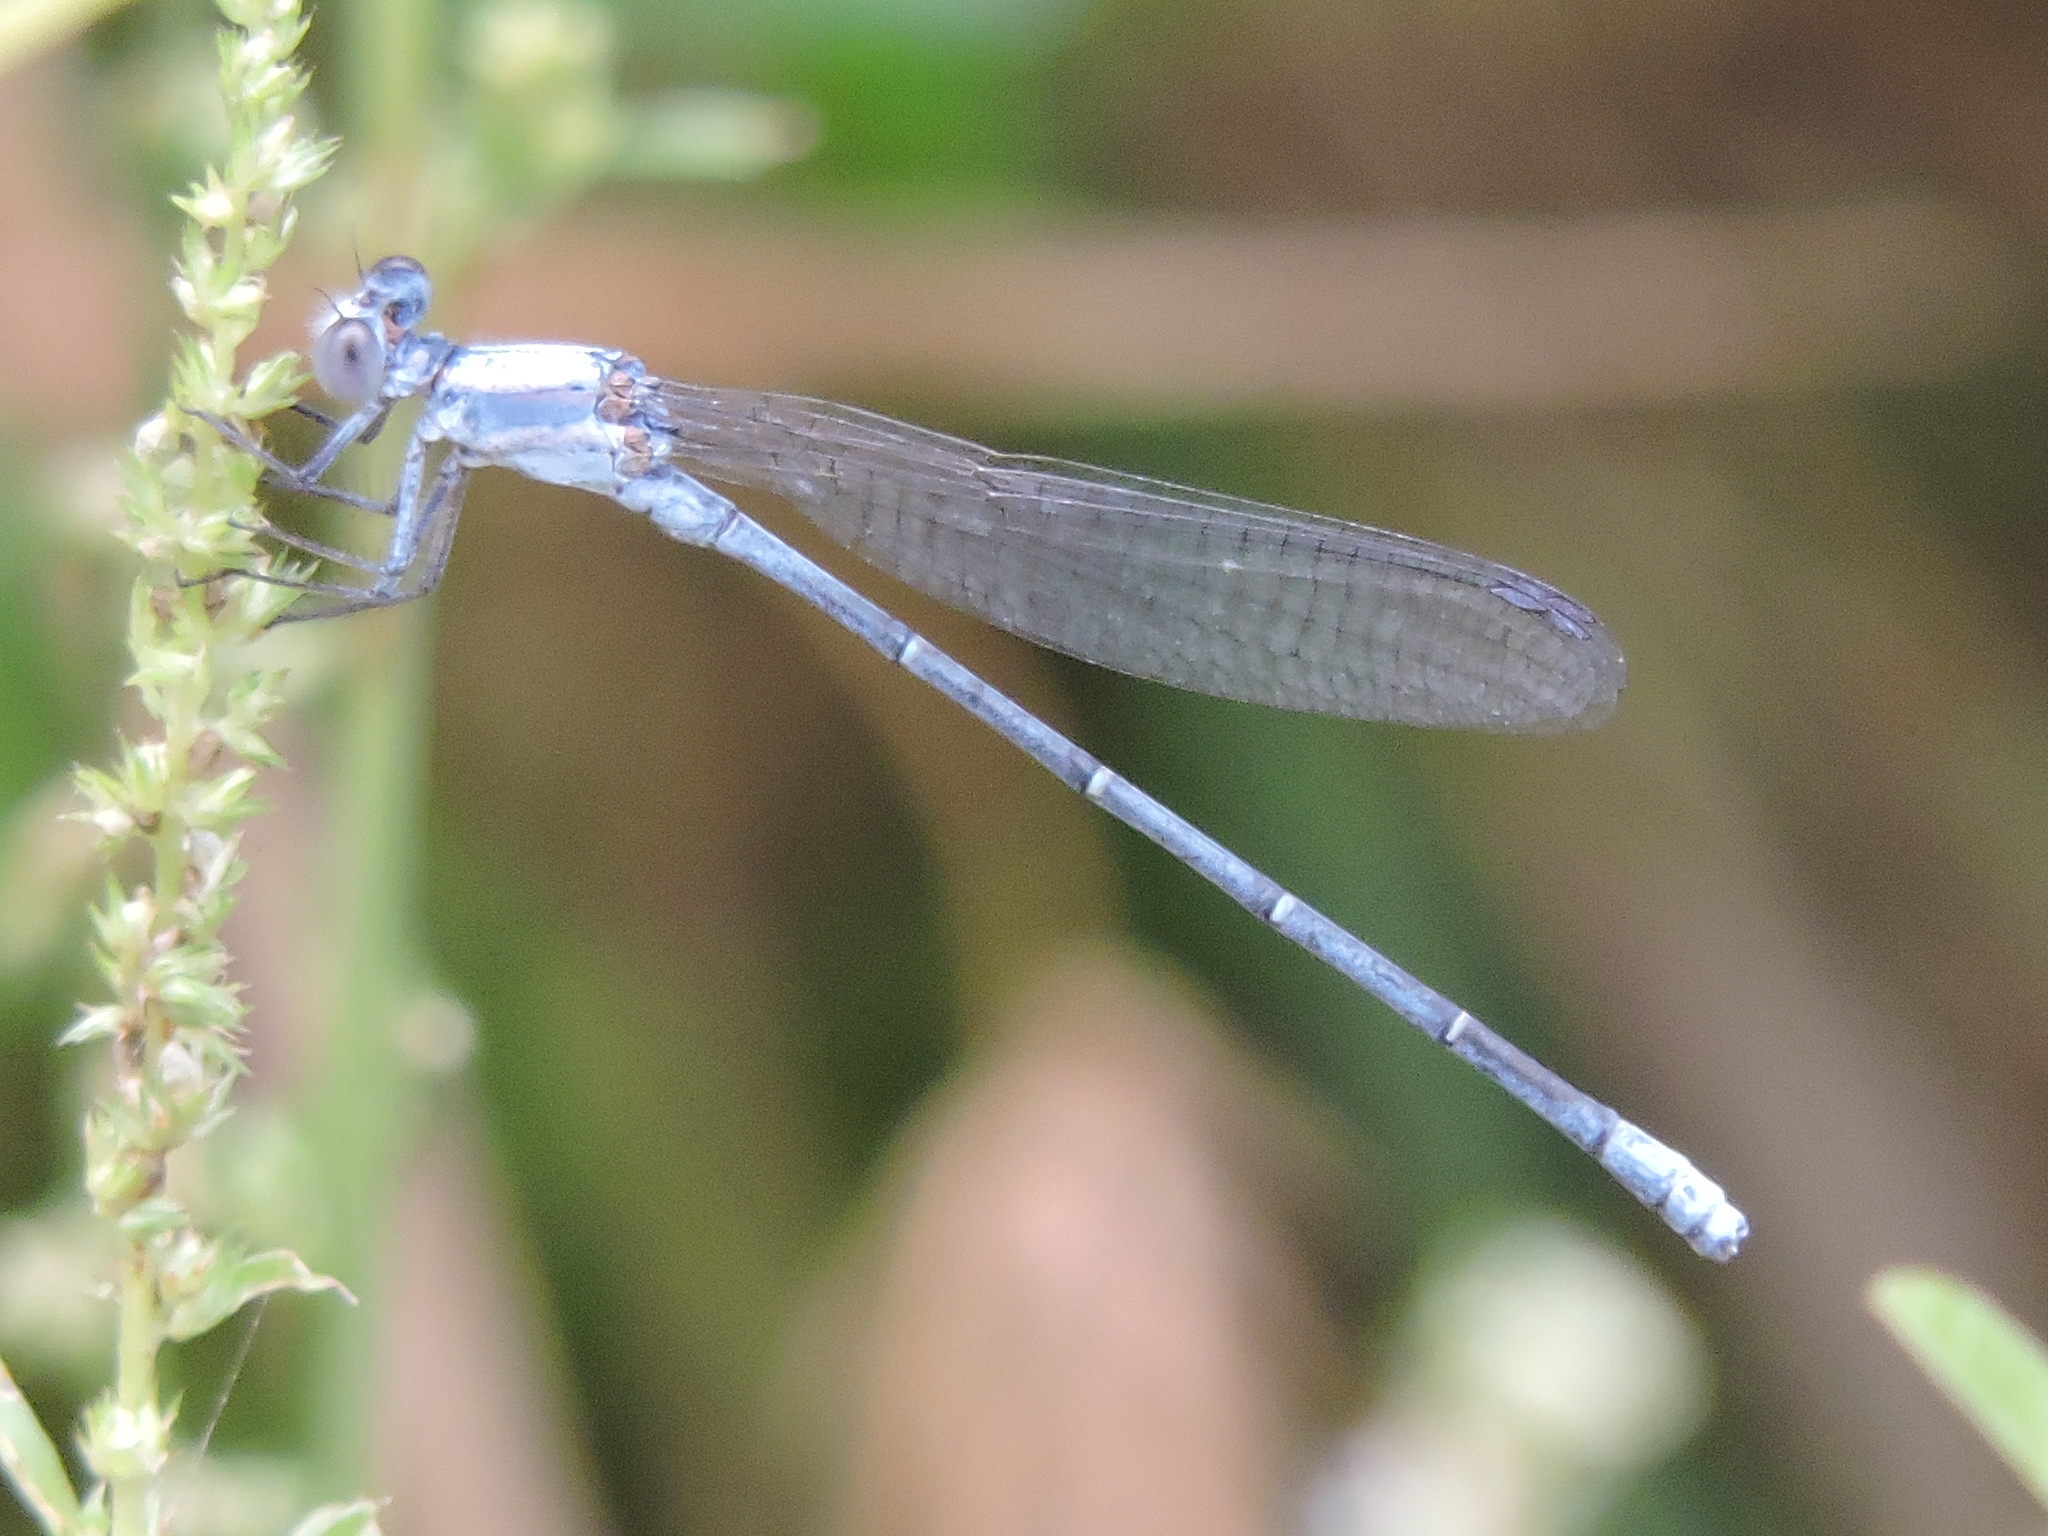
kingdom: Animalia
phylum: Arthropoda
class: Insecta
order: Odonata
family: Coenagrionidae
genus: Argia
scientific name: Argia moesta
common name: Powdered dancer
